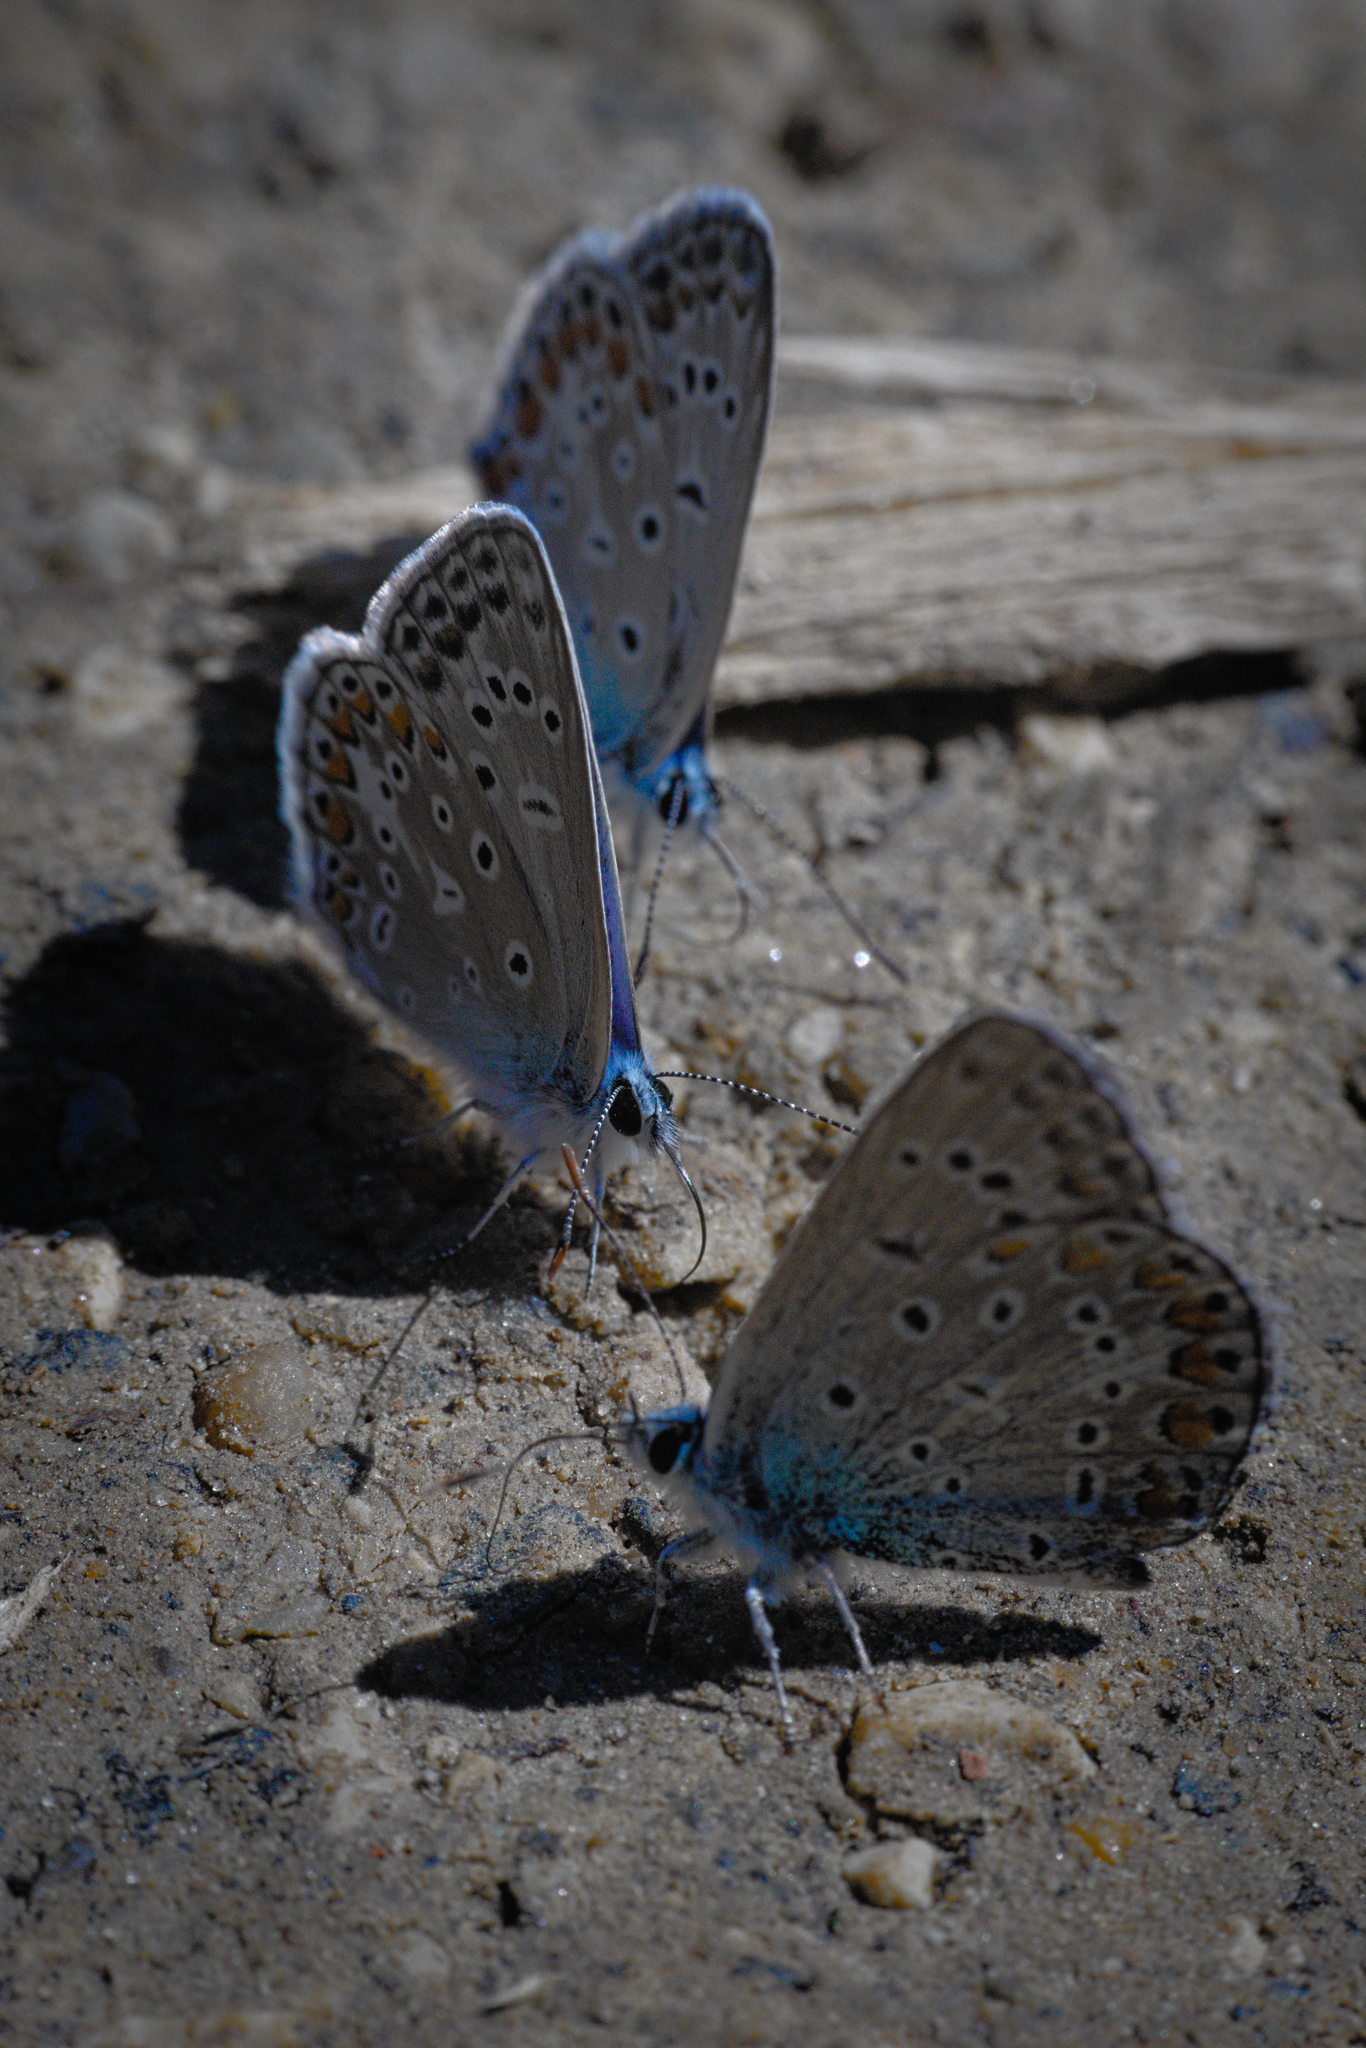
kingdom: Animalia
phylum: Arthropoda
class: Insecta
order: Lepidoptera
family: Lycaenidae
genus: Polyommatus
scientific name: Polyommatus icarus
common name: Common blue
